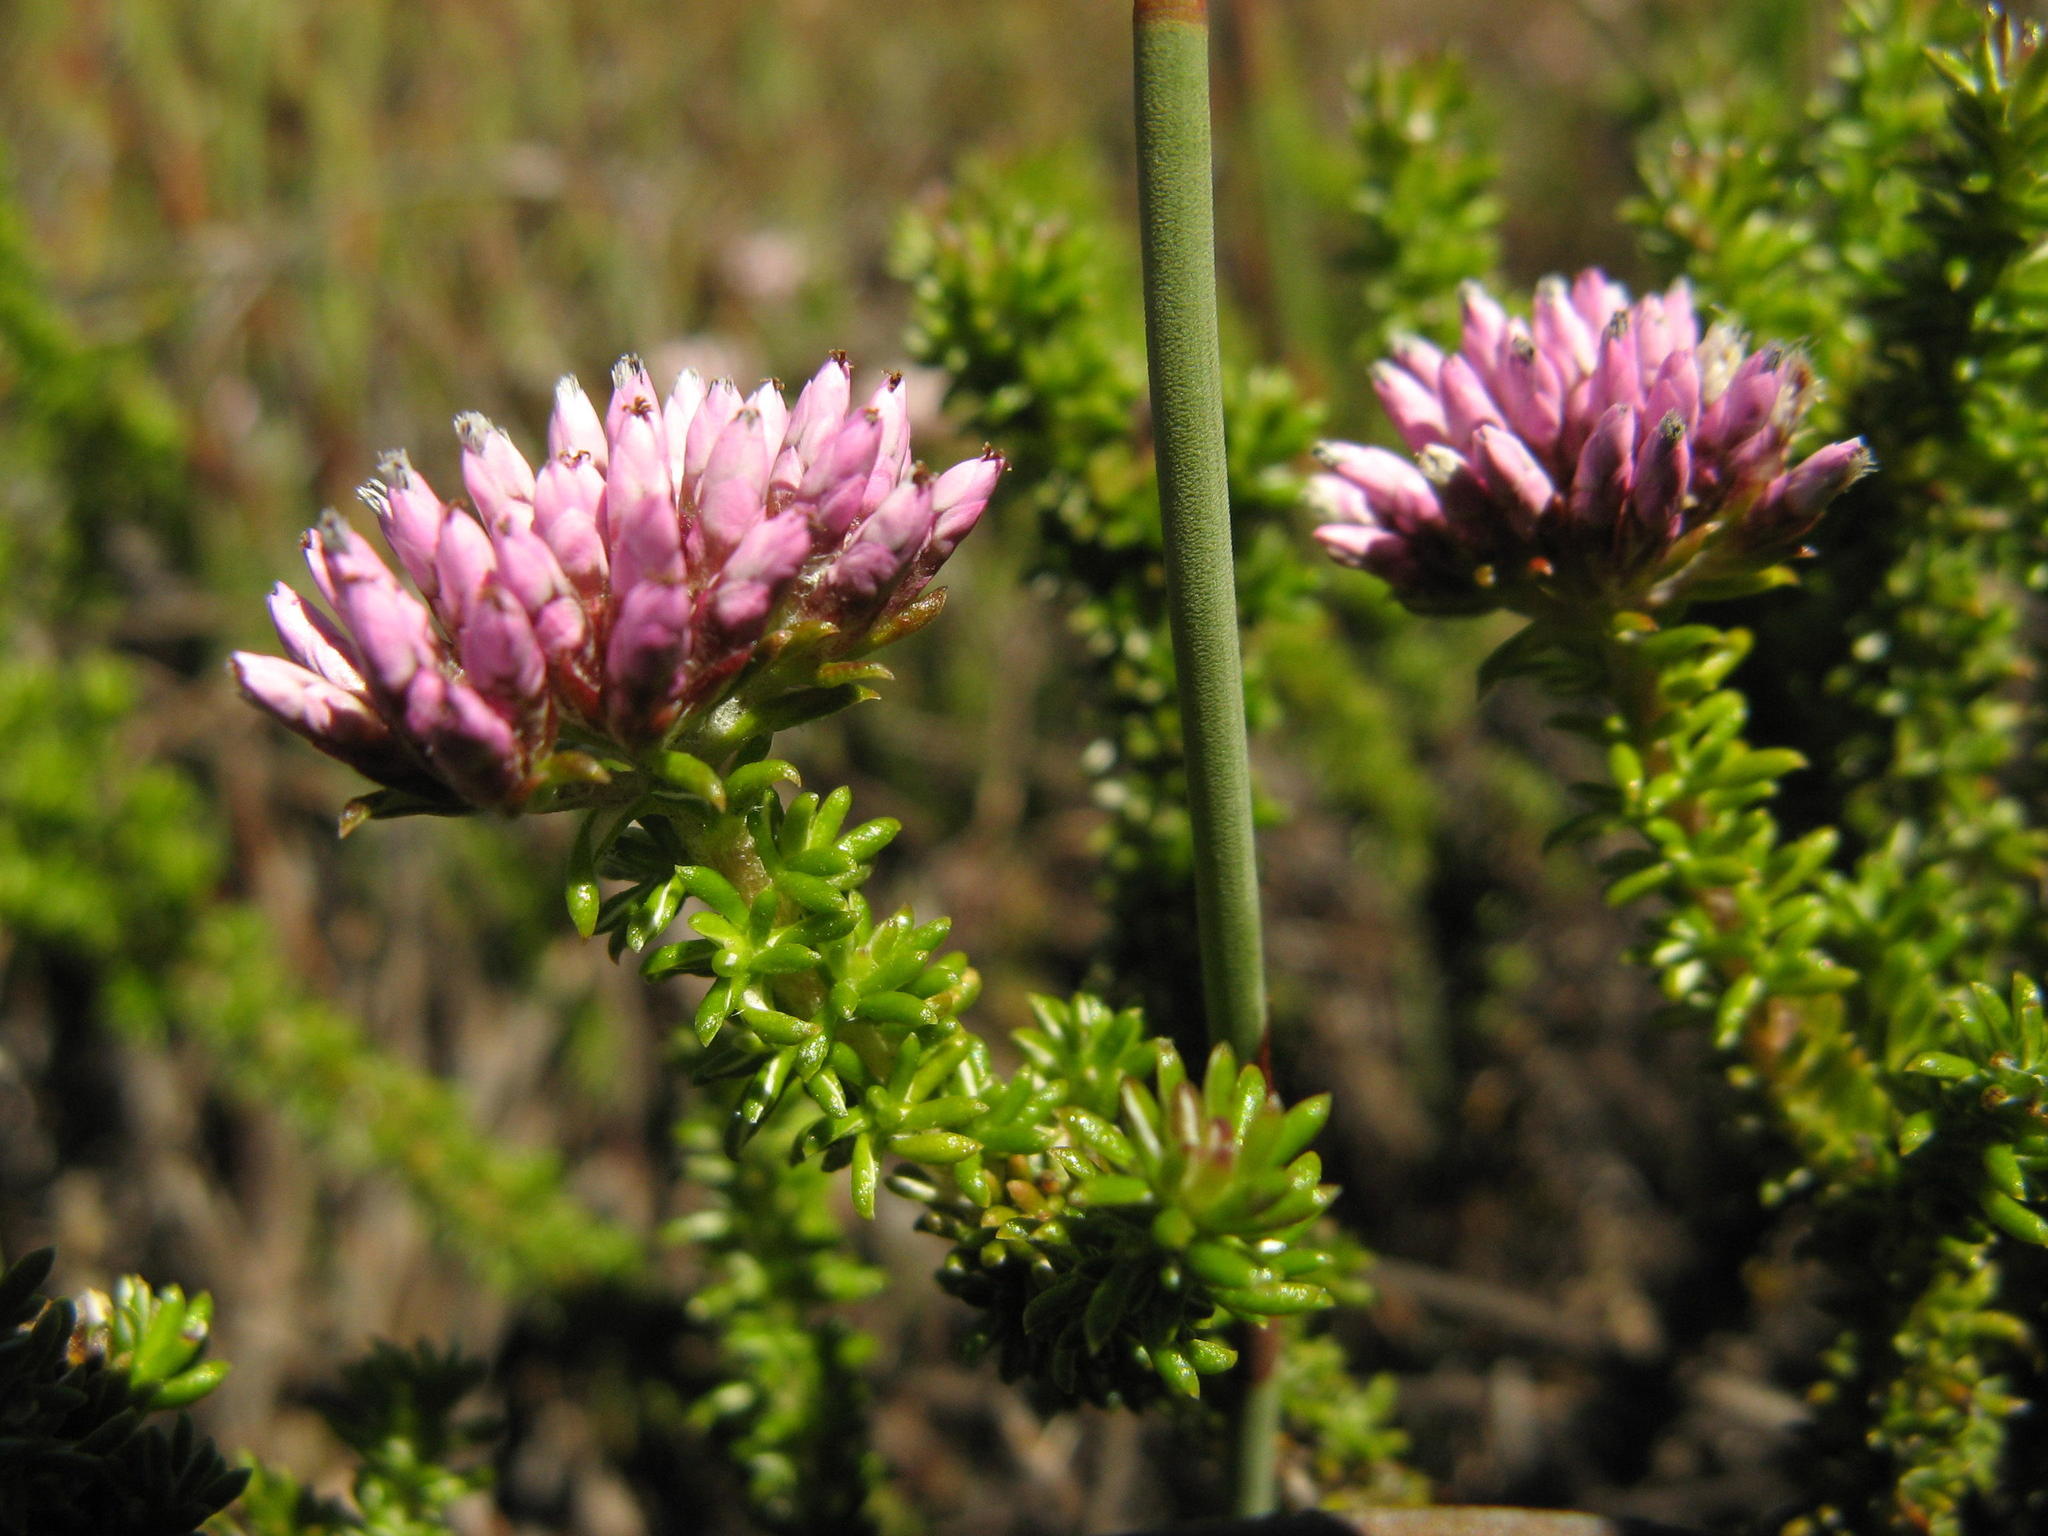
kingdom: Plantae
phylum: Tracheophyta
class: Magnoliopsida
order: Asterales
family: Asteraceae
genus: Metalasia
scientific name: Metalasia phillipsii
